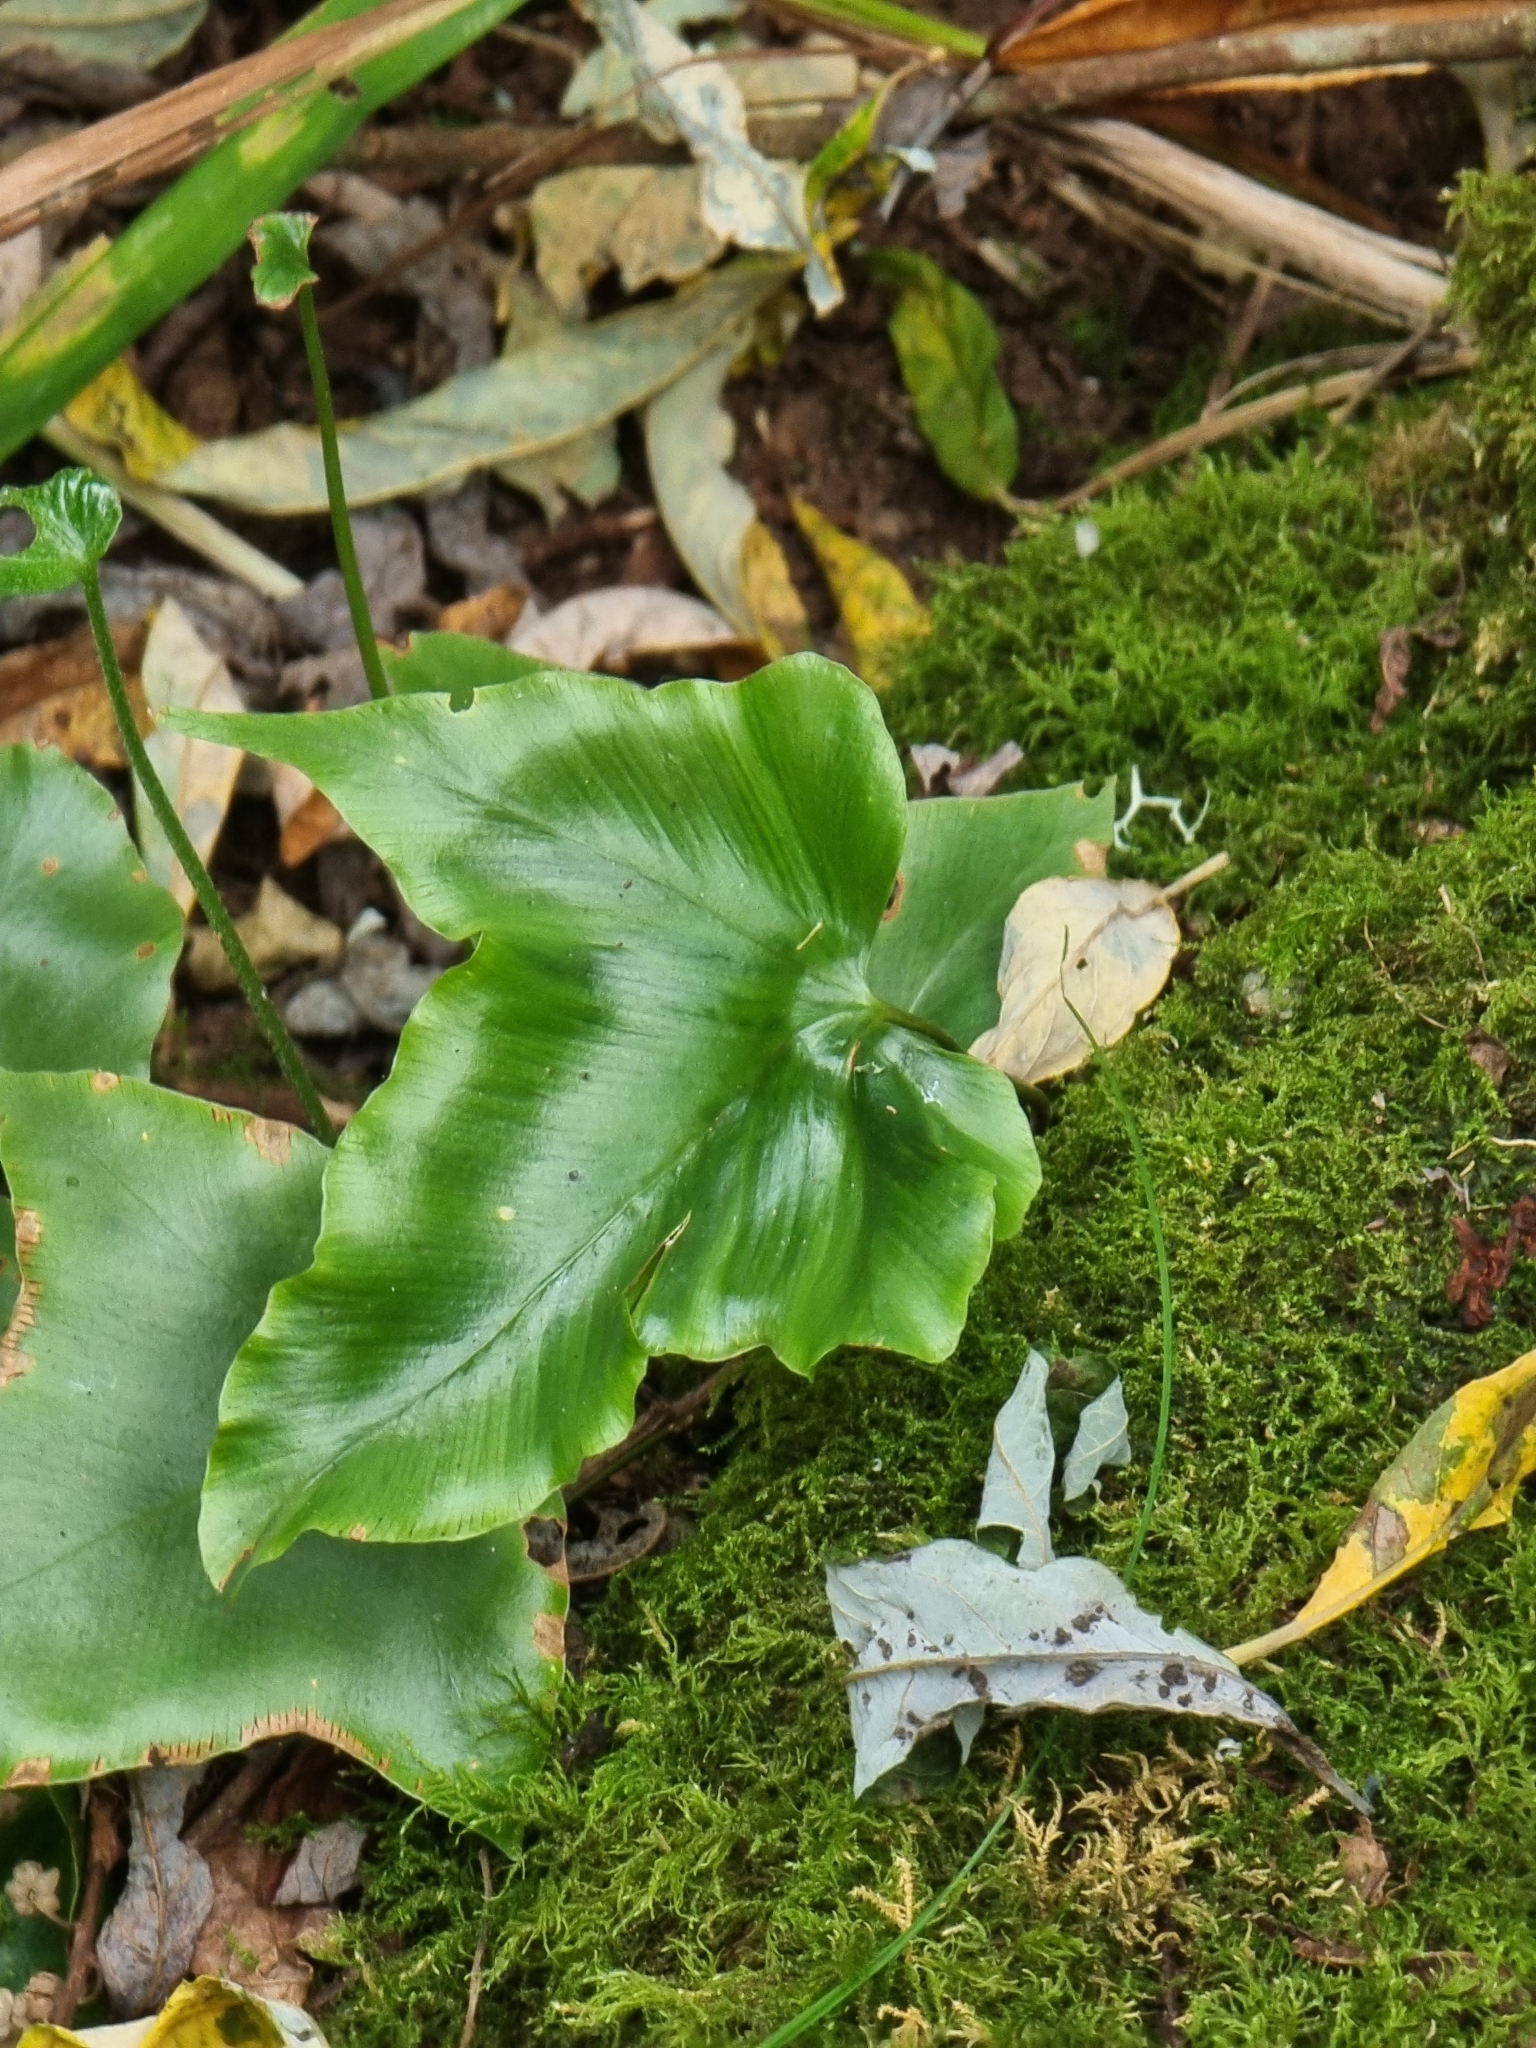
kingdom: Plantae
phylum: Tracheophyta
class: Polypodiopsida
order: Polypodiales
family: Aspleniaceae
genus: Asplenium
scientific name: Asplenium hemionitis
